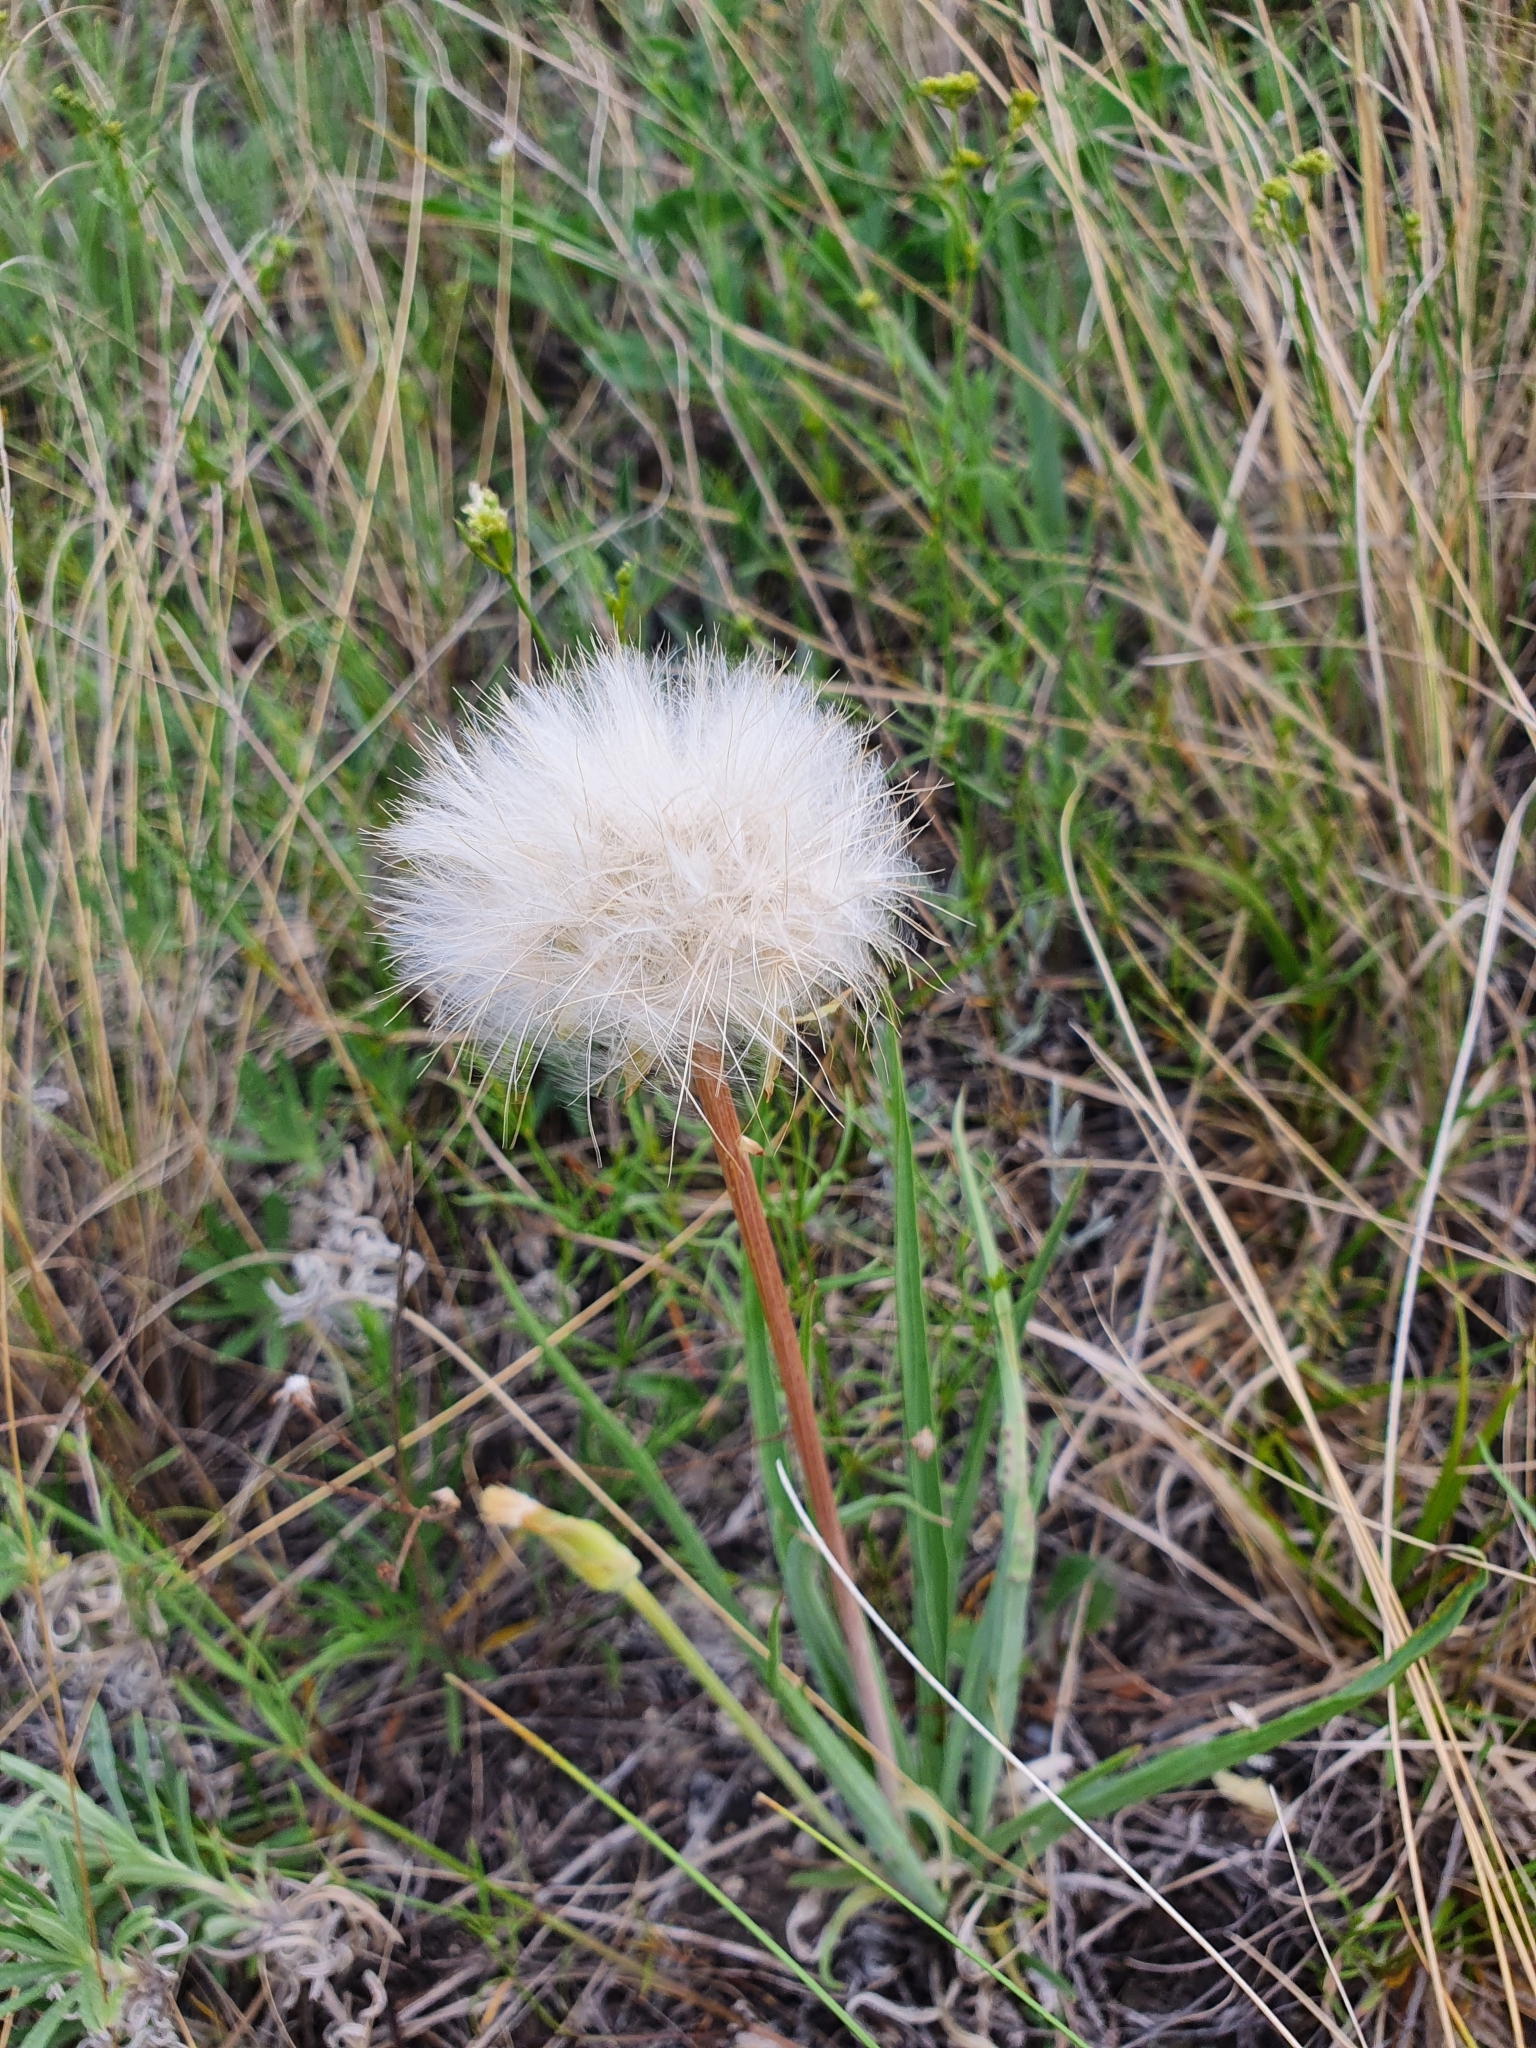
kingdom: Plantae
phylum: Tracheophyta
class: Magnoliopsida
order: Asterales
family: Asteraceae
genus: Takhtajaniantha
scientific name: Takhtajaniantha austriaca
